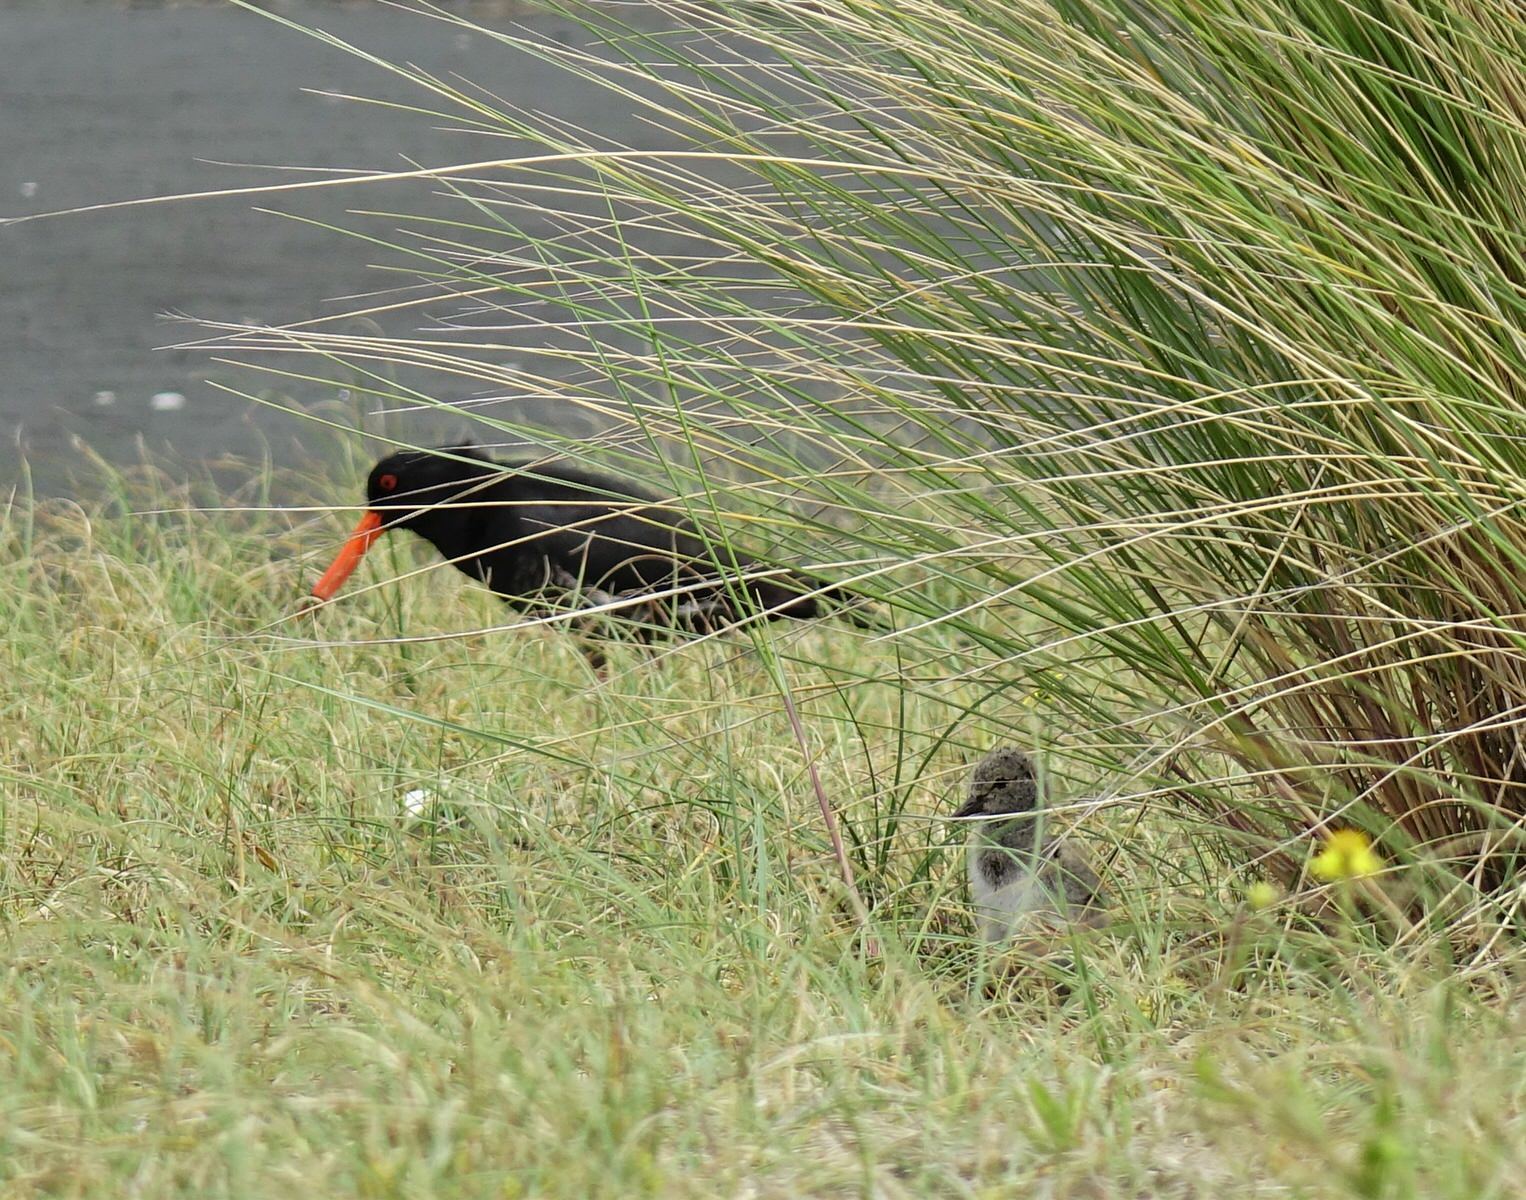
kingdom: Animalia
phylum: Chordata
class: Aves
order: Charadriiformes
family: Haematopodidae
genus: Haematopus
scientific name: Haematopus unicolor
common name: Variable oystercatcher
